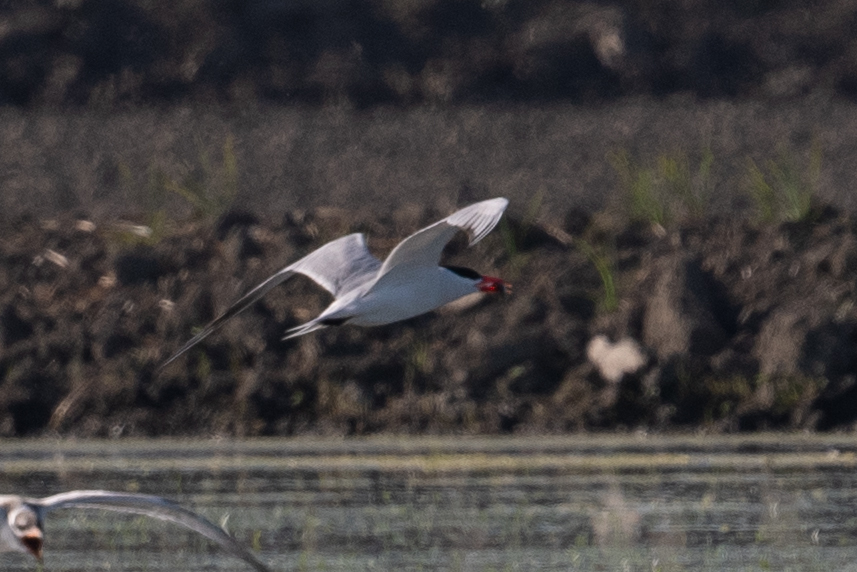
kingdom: Animalia
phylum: Chordata
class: Aves
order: Charadriiformes
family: Laridae
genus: Hydroprogne
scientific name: Hydroprogne caspia
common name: Caspian tern
